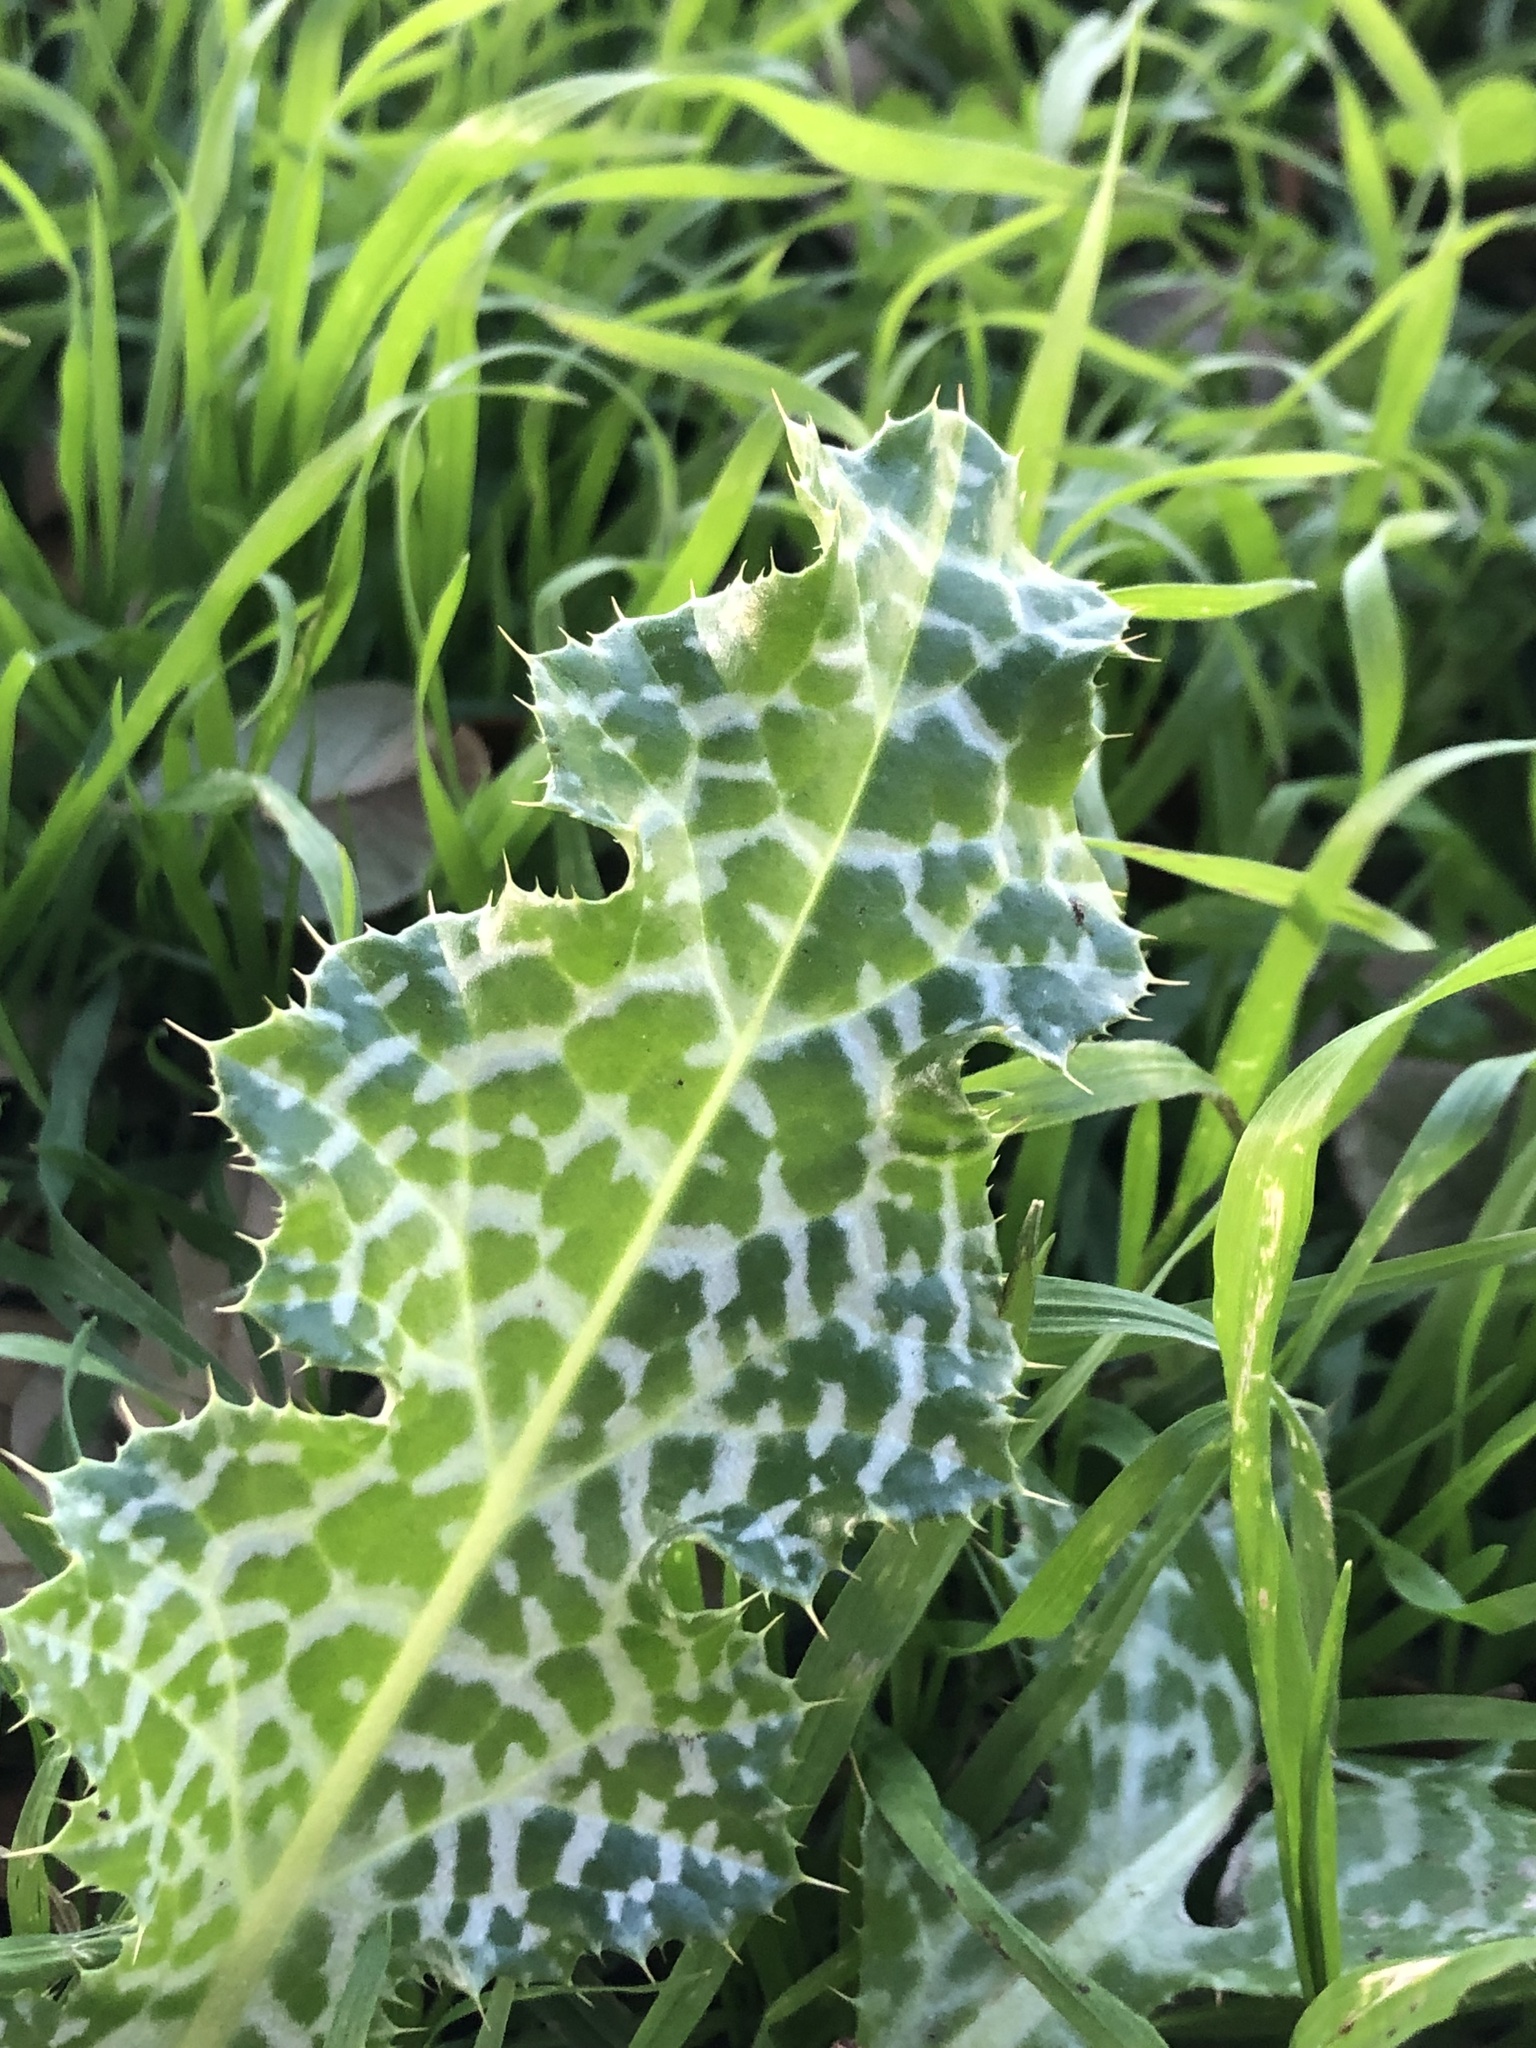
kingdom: Plantae
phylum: Tracheophyta
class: Magnoliopsida
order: Asterales
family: Asteraceae
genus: Silybum
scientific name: Silybum marianum
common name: Milk thistle
